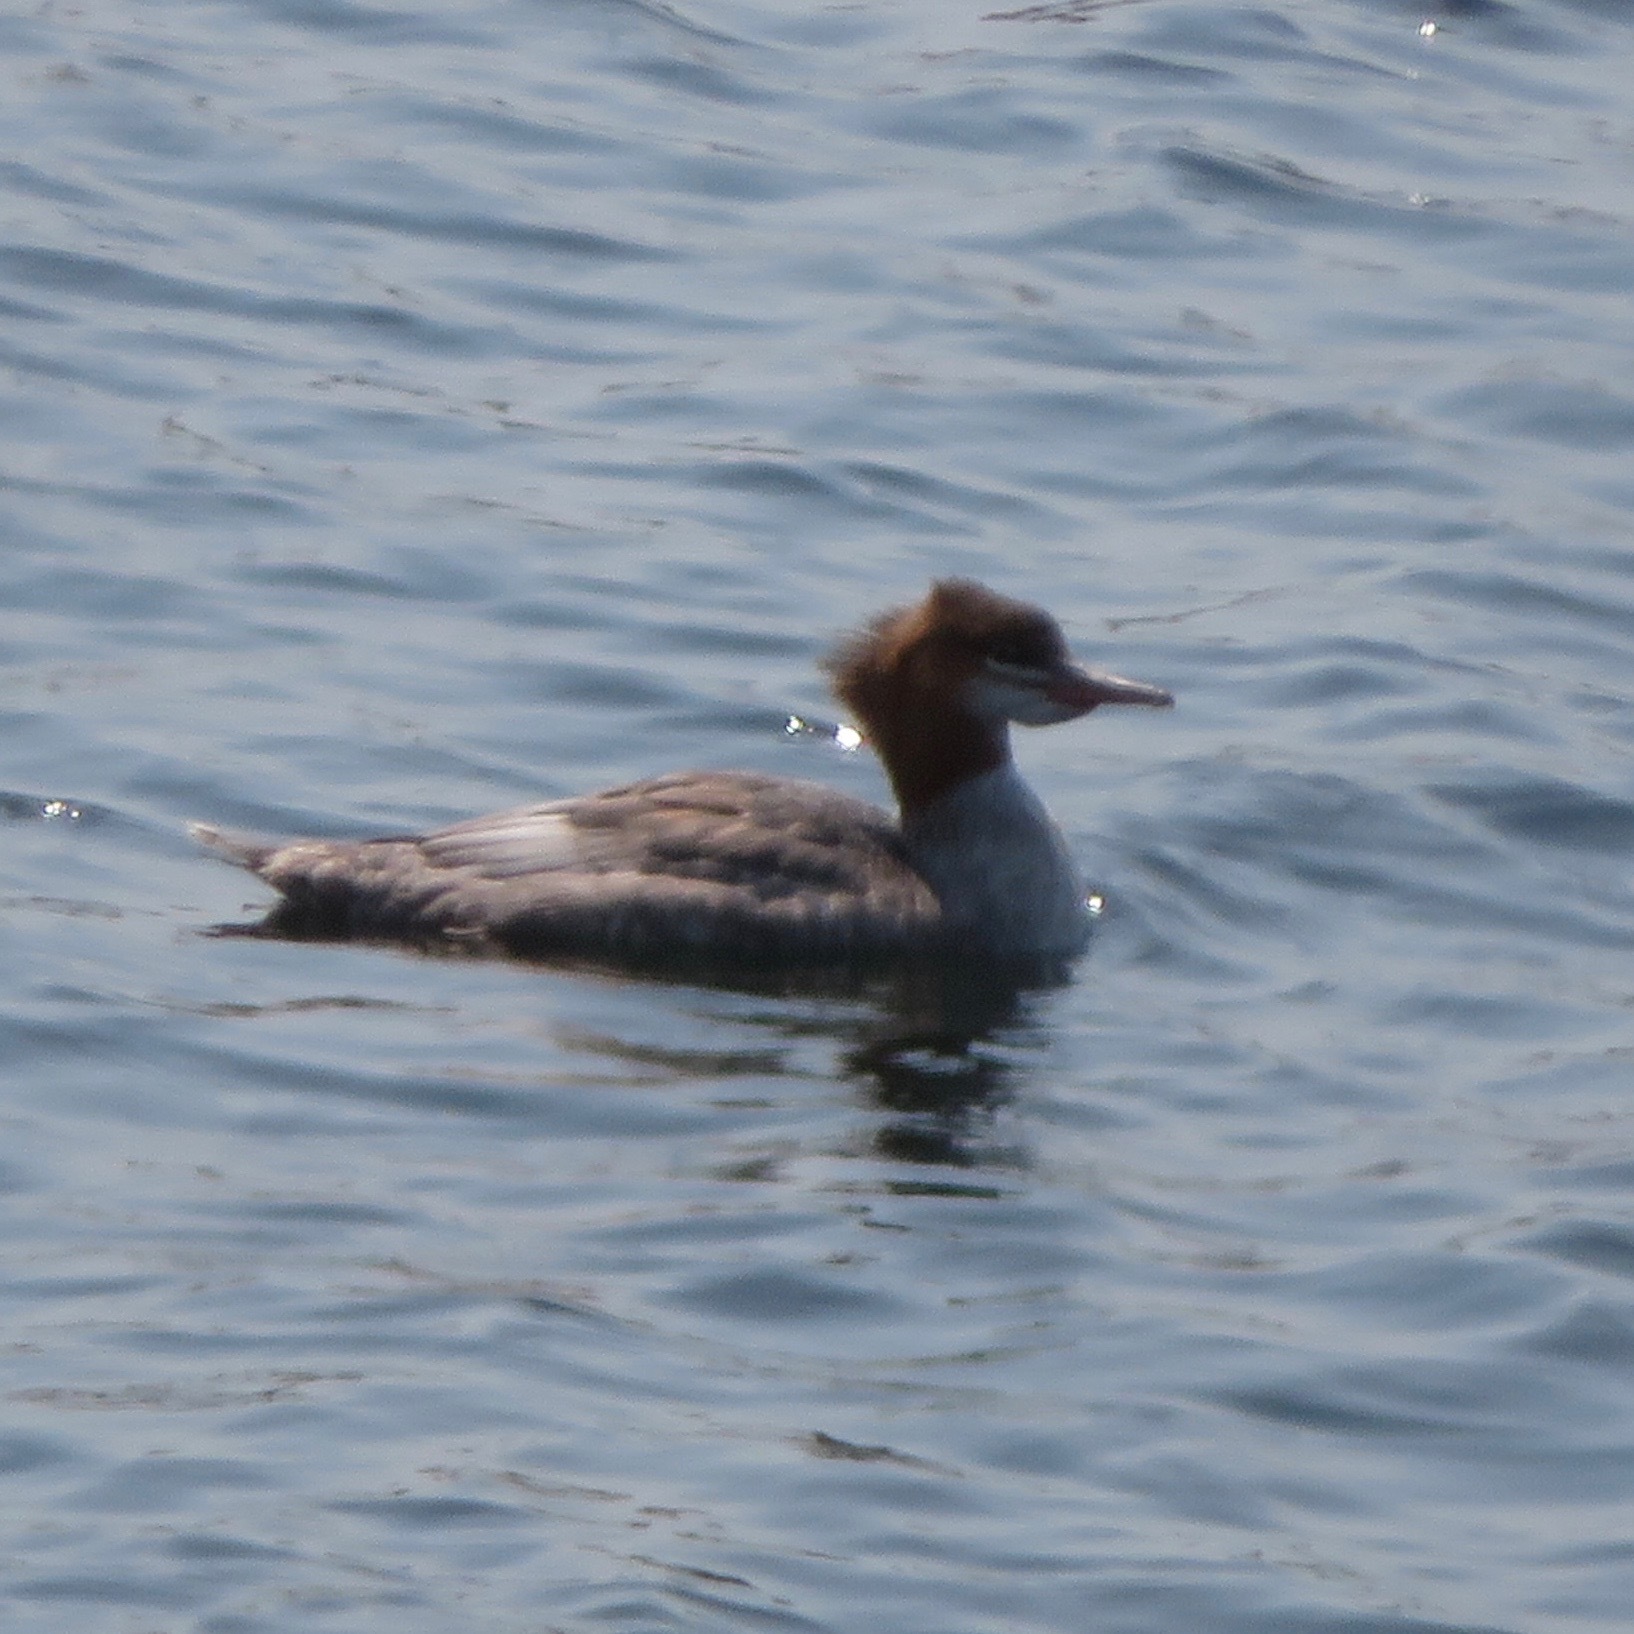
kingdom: Animalia
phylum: Chordata
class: Aves
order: Anseriformes
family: Anatidae
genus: Mergus
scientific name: Mergus merganser
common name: Common merganser
